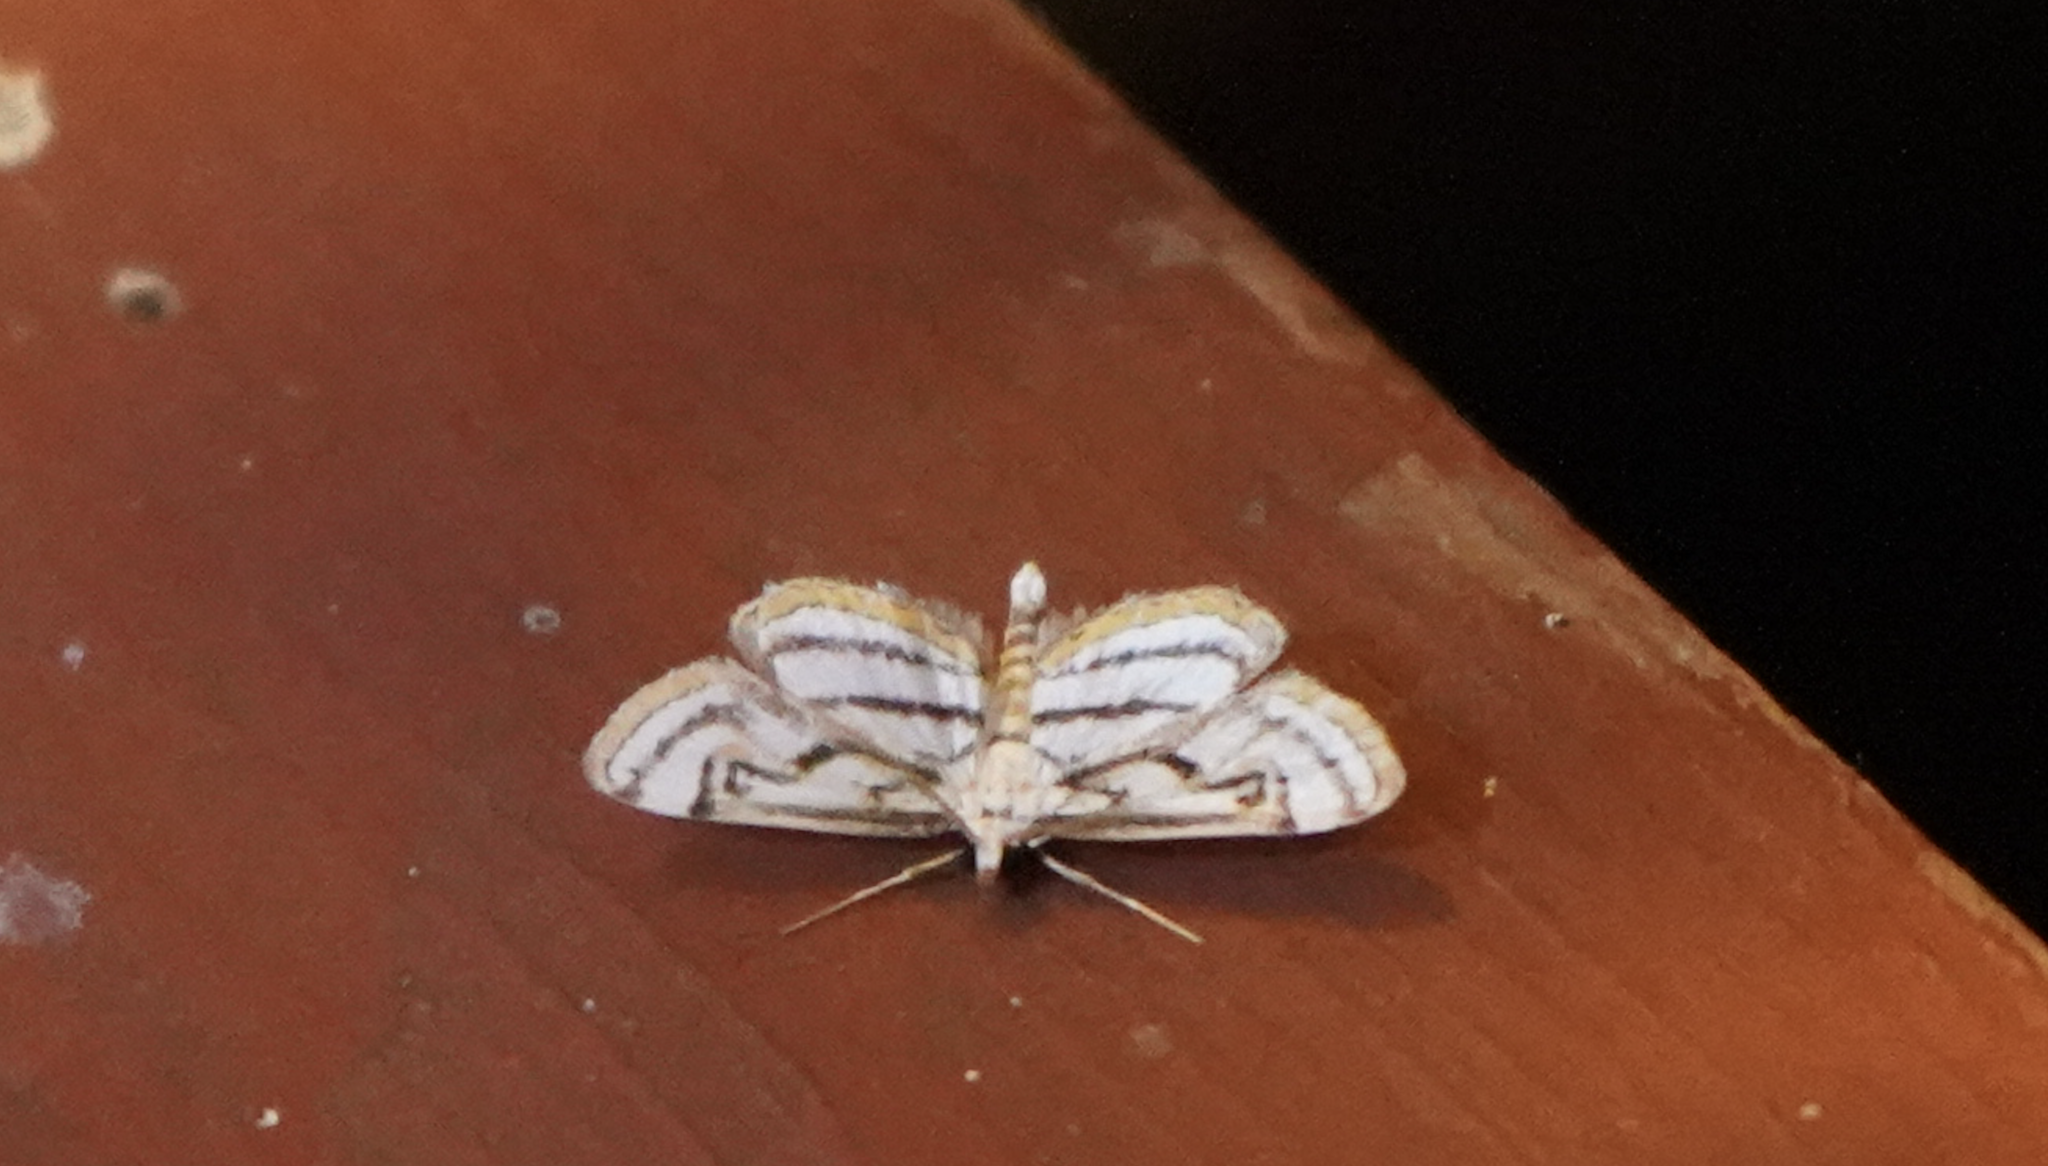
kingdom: Animalia
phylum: Arthropoda
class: Insecta
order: Lepidoptera
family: Crambidae
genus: Parapoynx
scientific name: Parapoynx badiusalis
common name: Chestnut-marked pondweed moth
